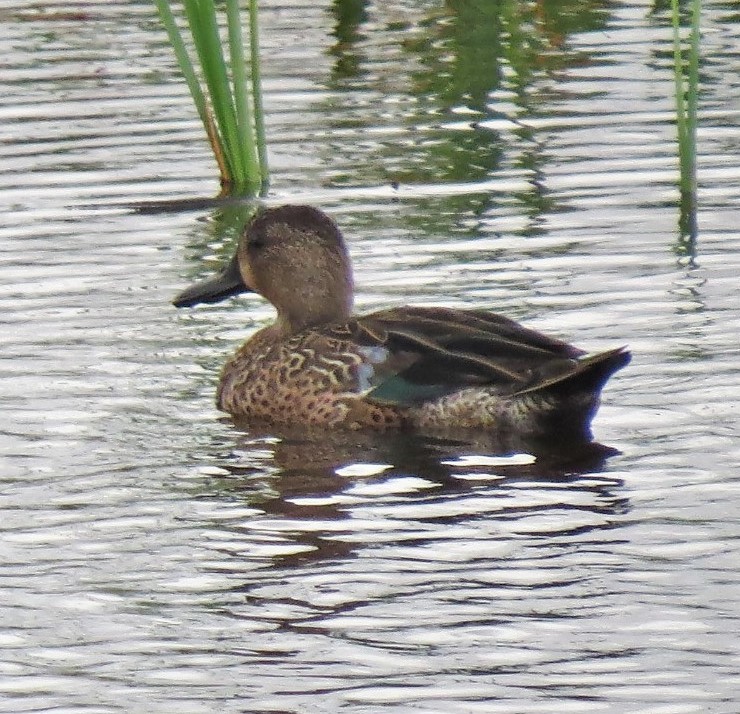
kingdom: Animalia
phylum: Chordata
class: Aves
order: Anseriformes
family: Anatidae
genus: Spatula
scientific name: Spatula discors
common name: Blue-winged teal
